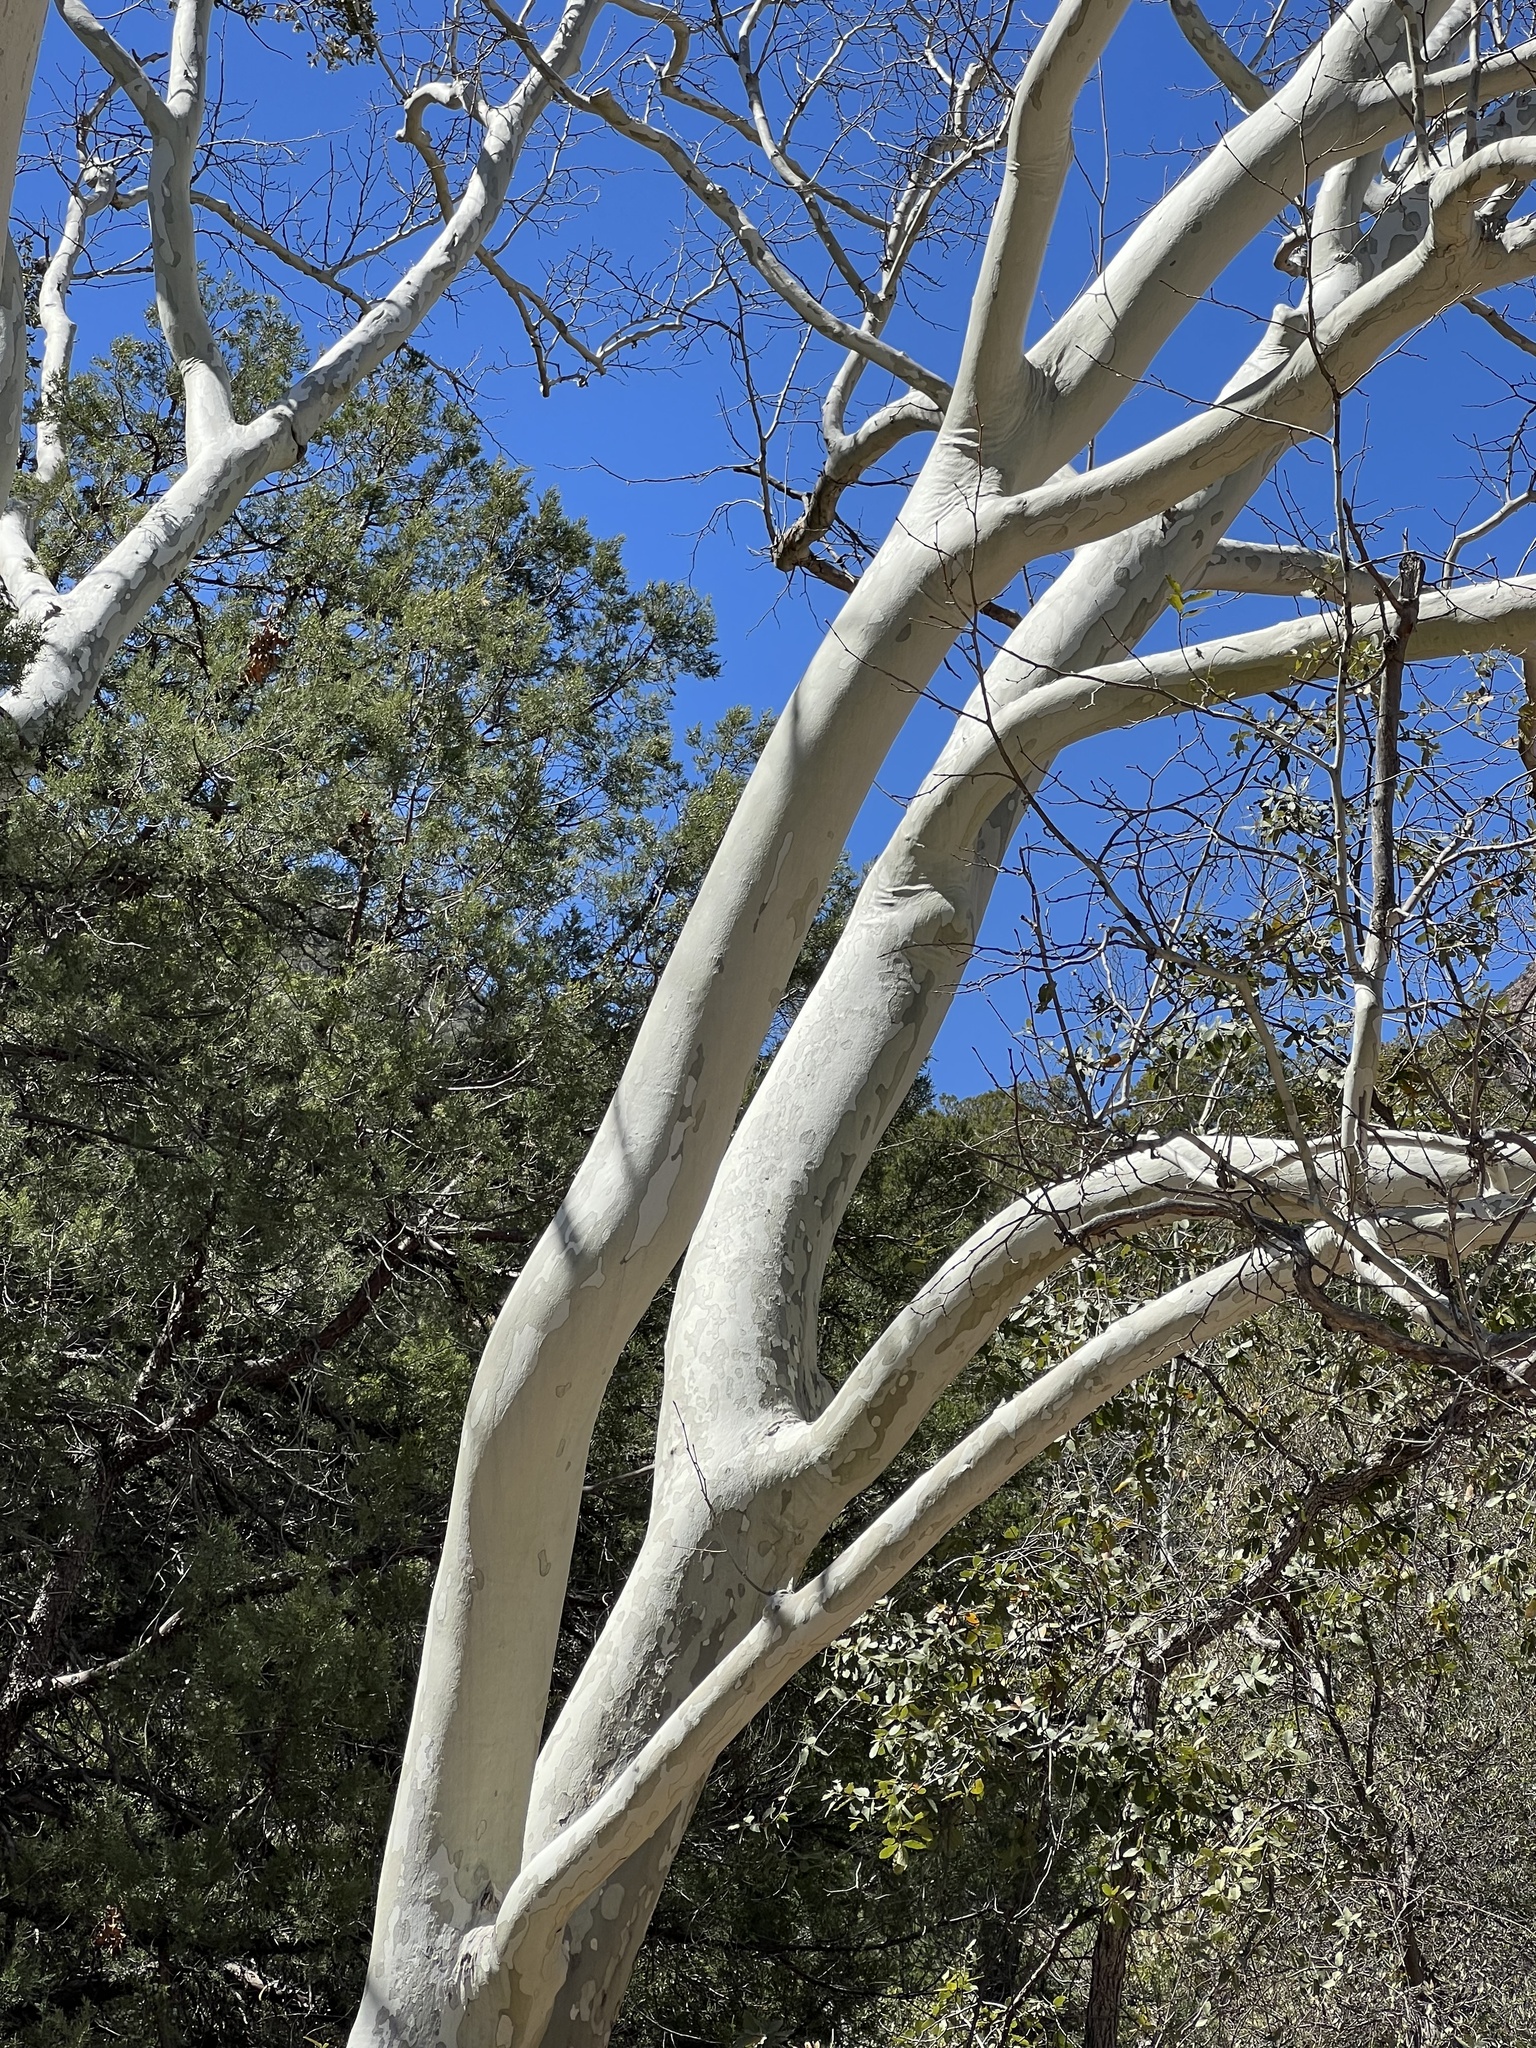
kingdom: Plantae
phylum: Tracheophyta
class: Magnoliopsida
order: Proteales
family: Platanaceae
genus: Platanus
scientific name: Platanus wrightii
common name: Arizona sycamore
